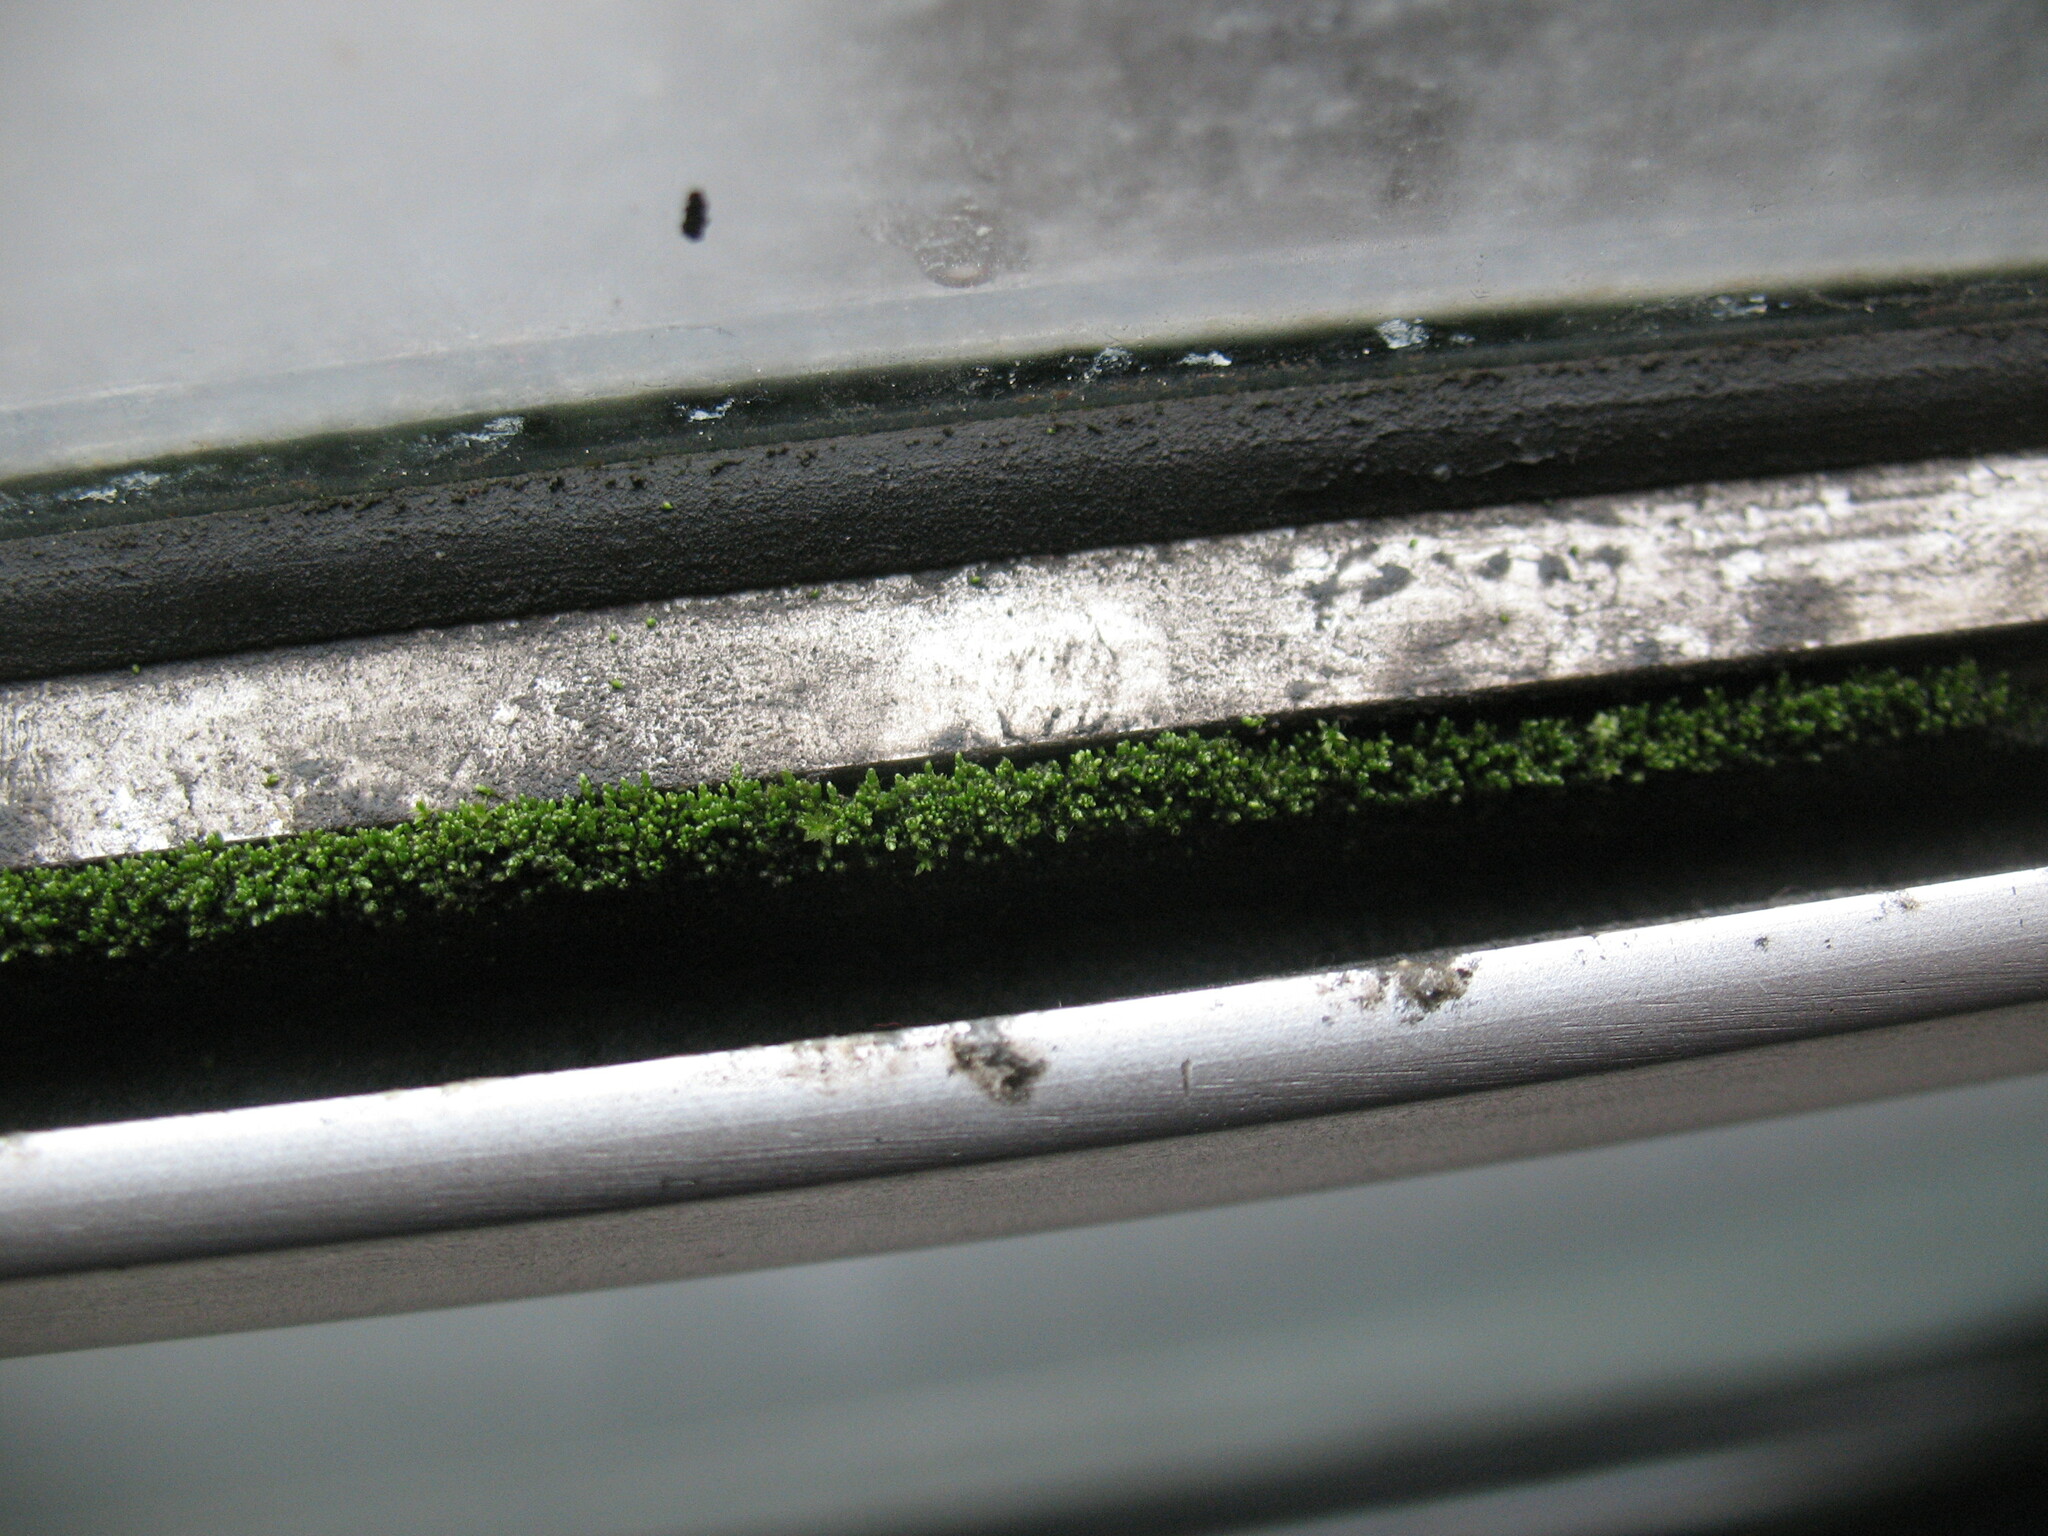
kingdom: Plantae
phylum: Bryophyta
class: Bryopsida
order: Bryales
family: Bryaceae
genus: Bryum
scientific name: Bryum argenteum
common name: Silver-moss
